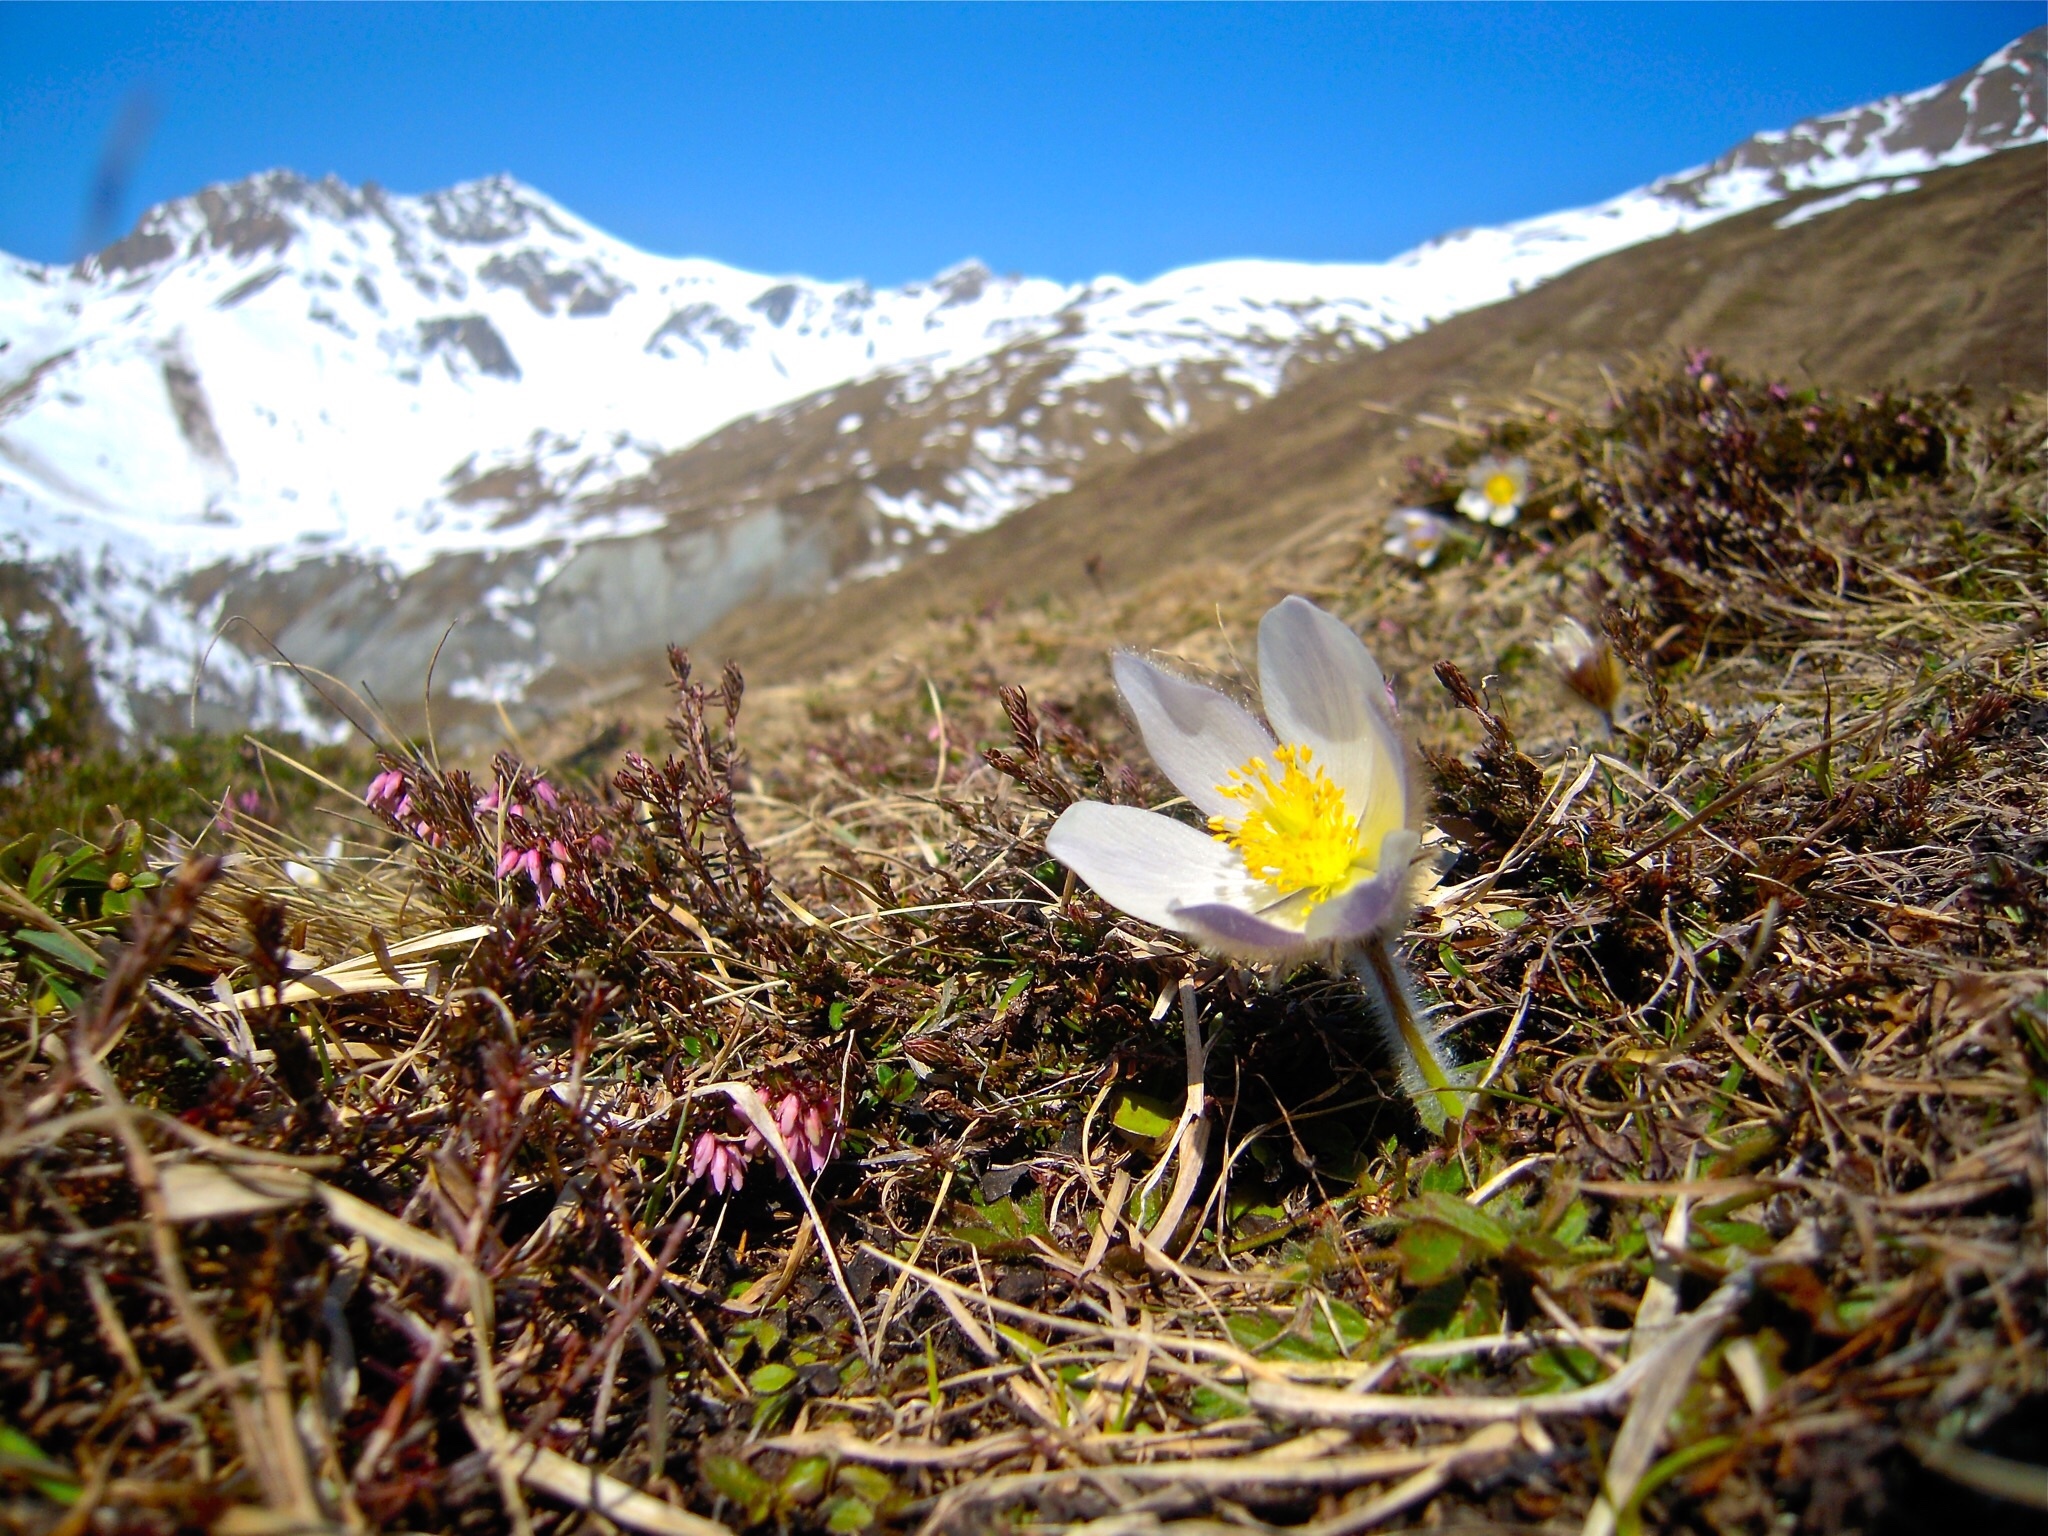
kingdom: Plantae
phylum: Tracheophyta
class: Magnoliopsida
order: Ranunculales
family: Ranunculaceae
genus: Pulsatilla
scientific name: Pulsatilla vernalis
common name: Spring pasque flower
